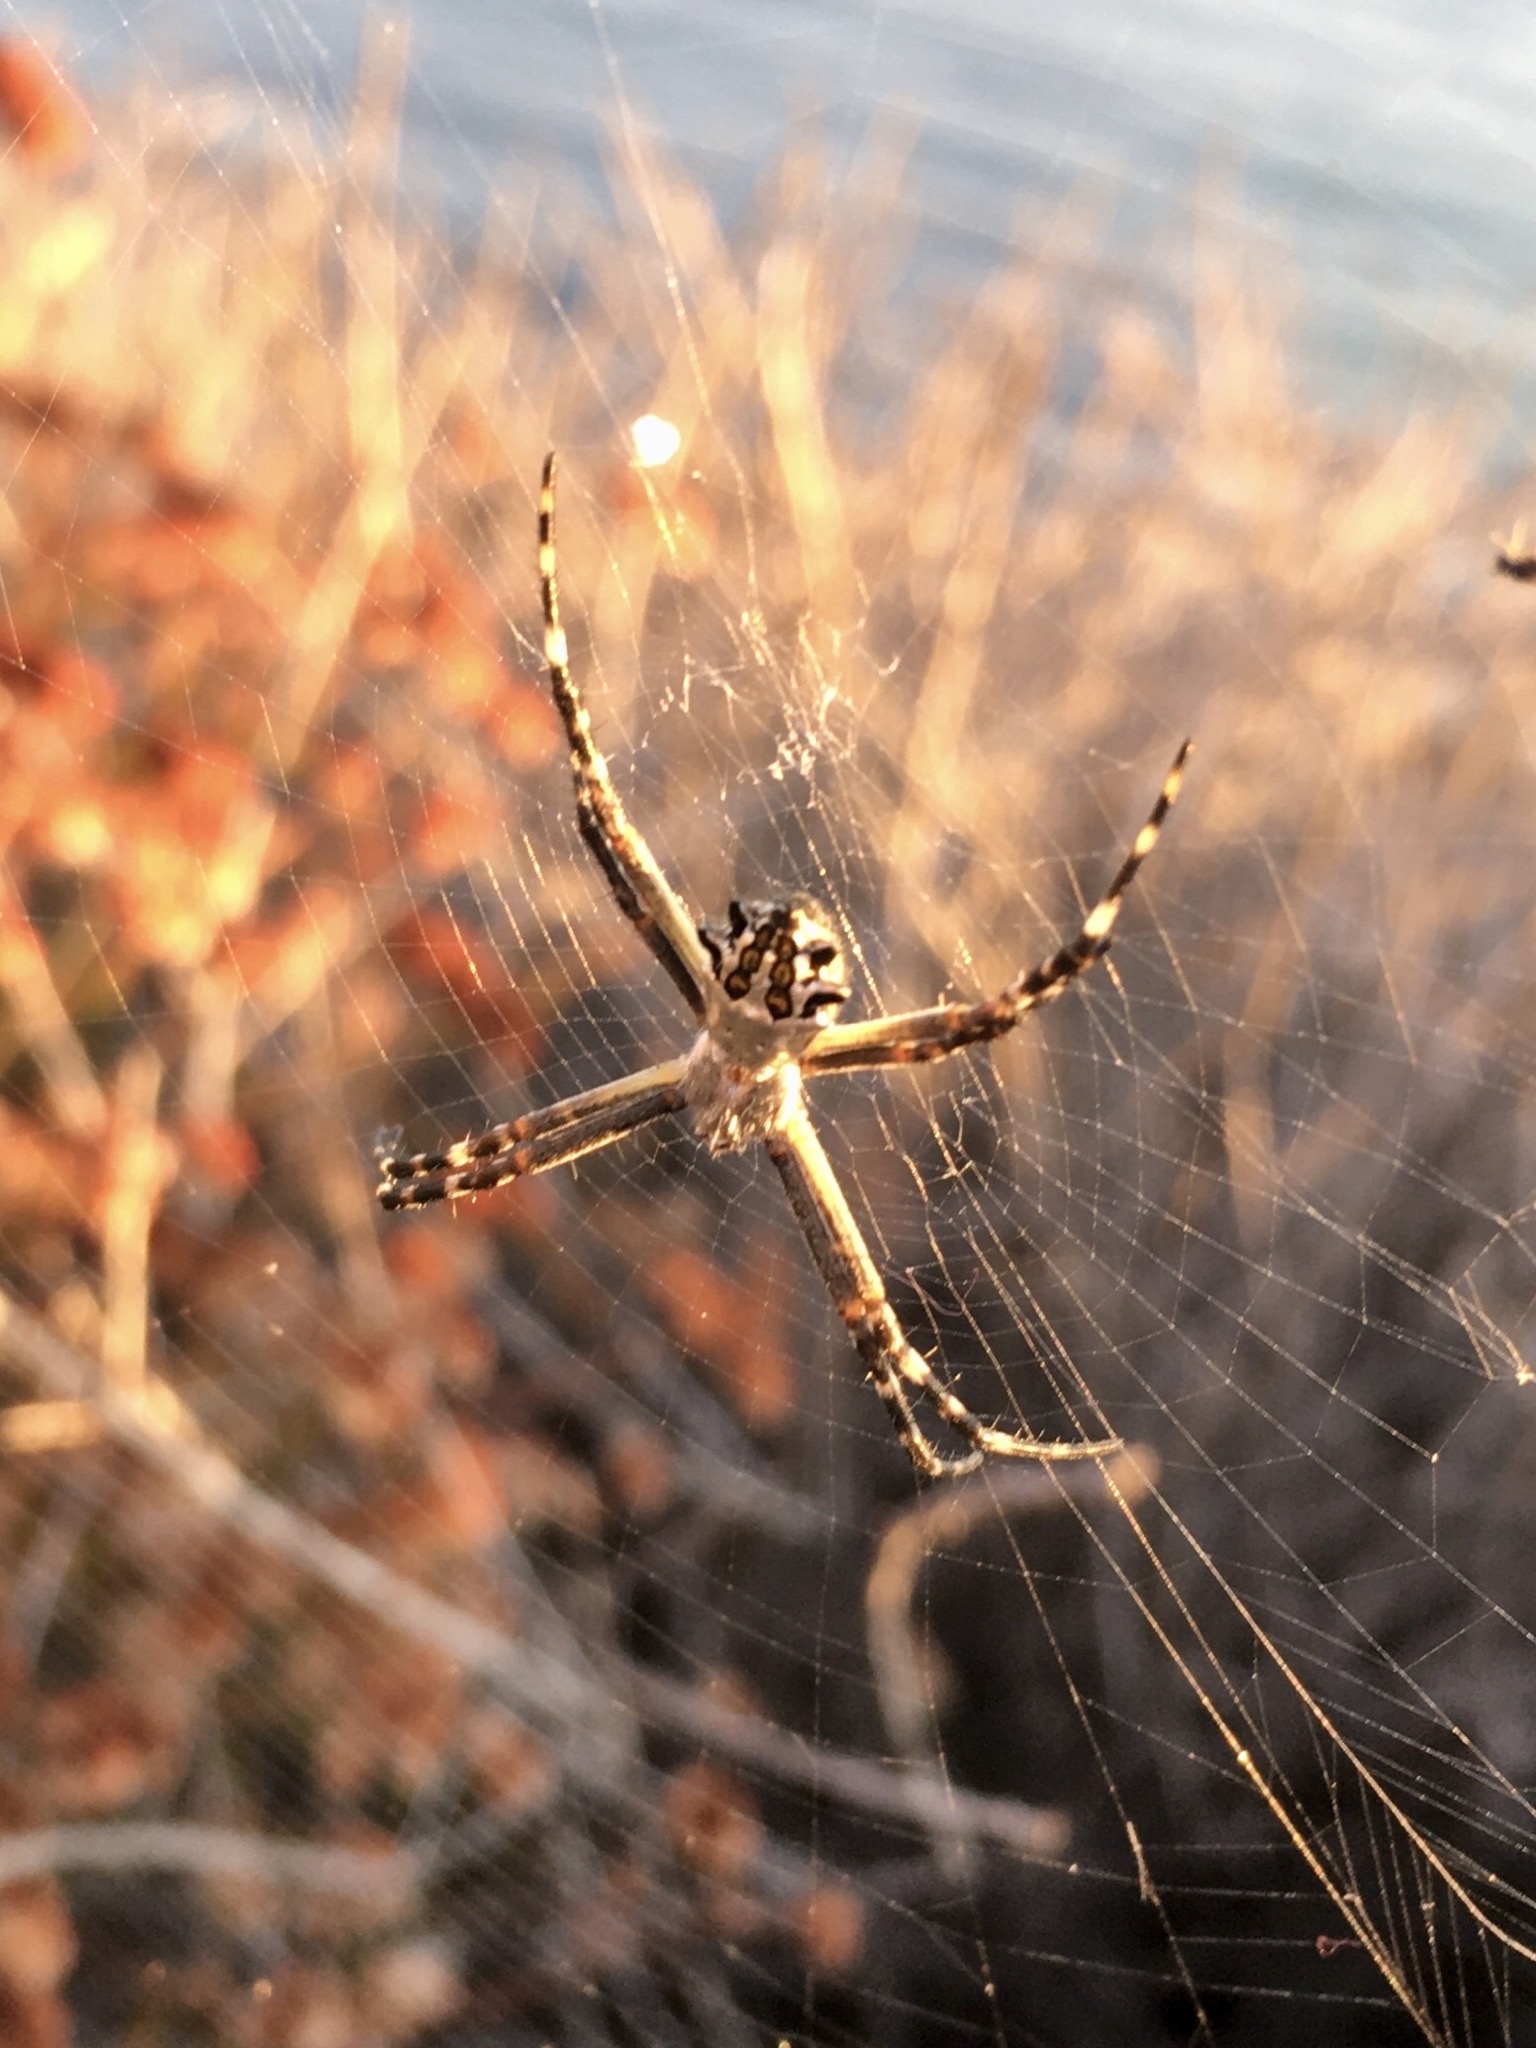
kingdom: Animalia
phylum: Arthropoda
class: Arachnida
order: Araneae
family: Araneidae
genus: Argiope
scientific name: Argiope argentata
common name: Orb weavers
